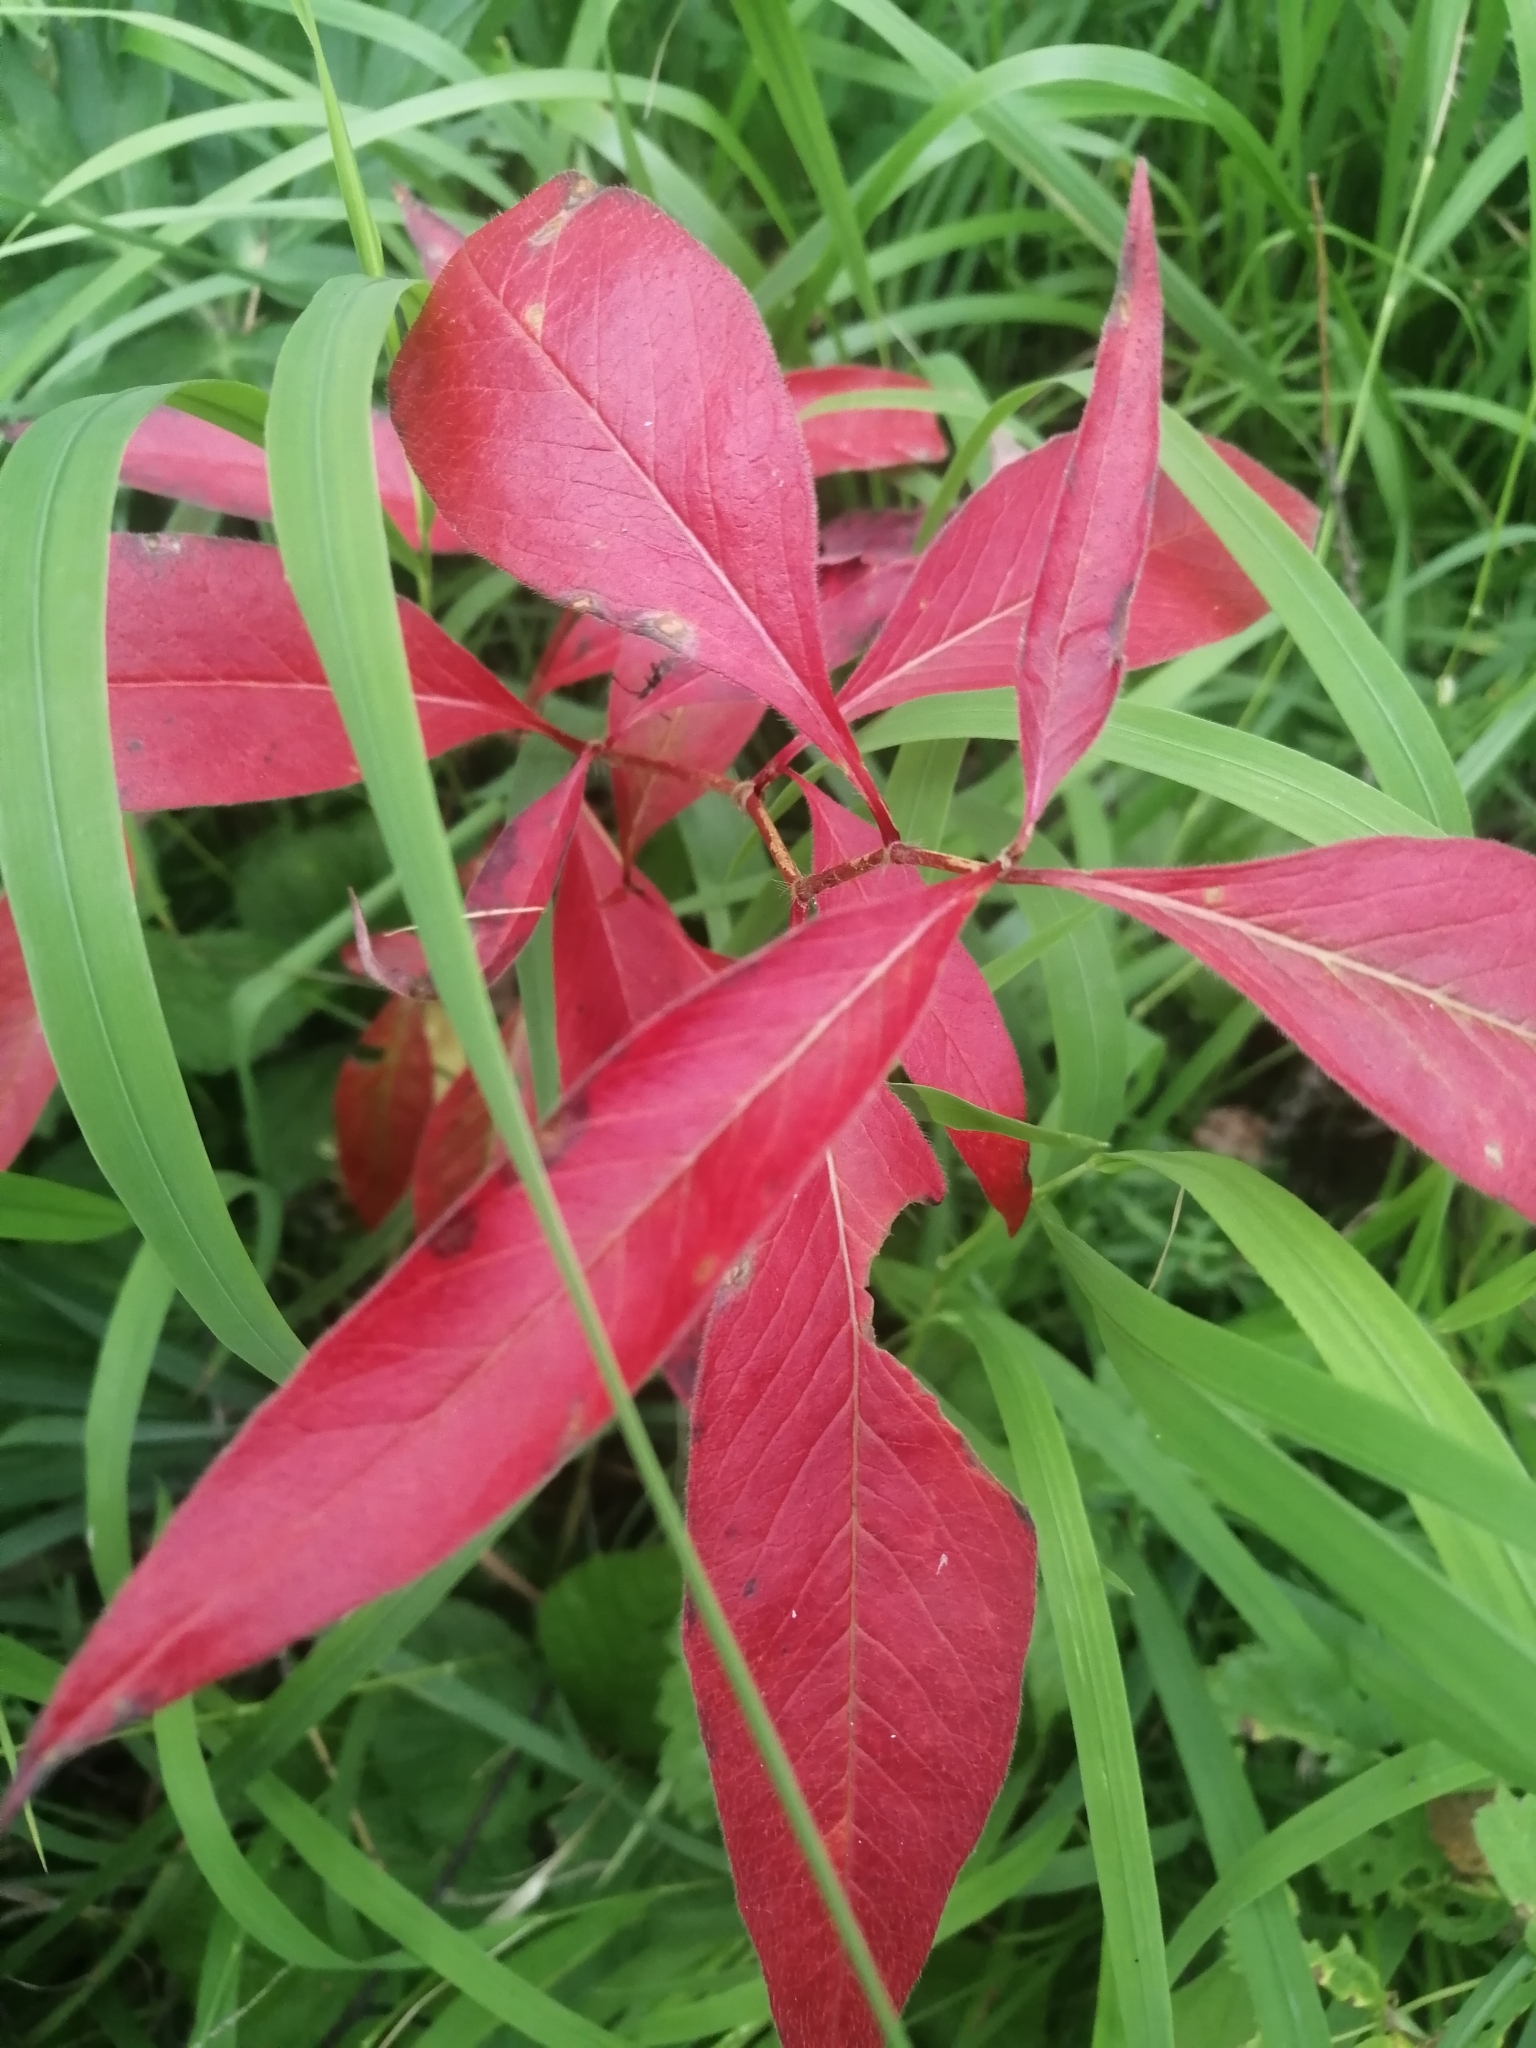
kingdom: Plantae
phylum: Tracheophyta
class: Magnoliopsida
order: Caryophyllales
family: Polygonaceae
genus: Koenigia
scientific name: Koenigia alpina
